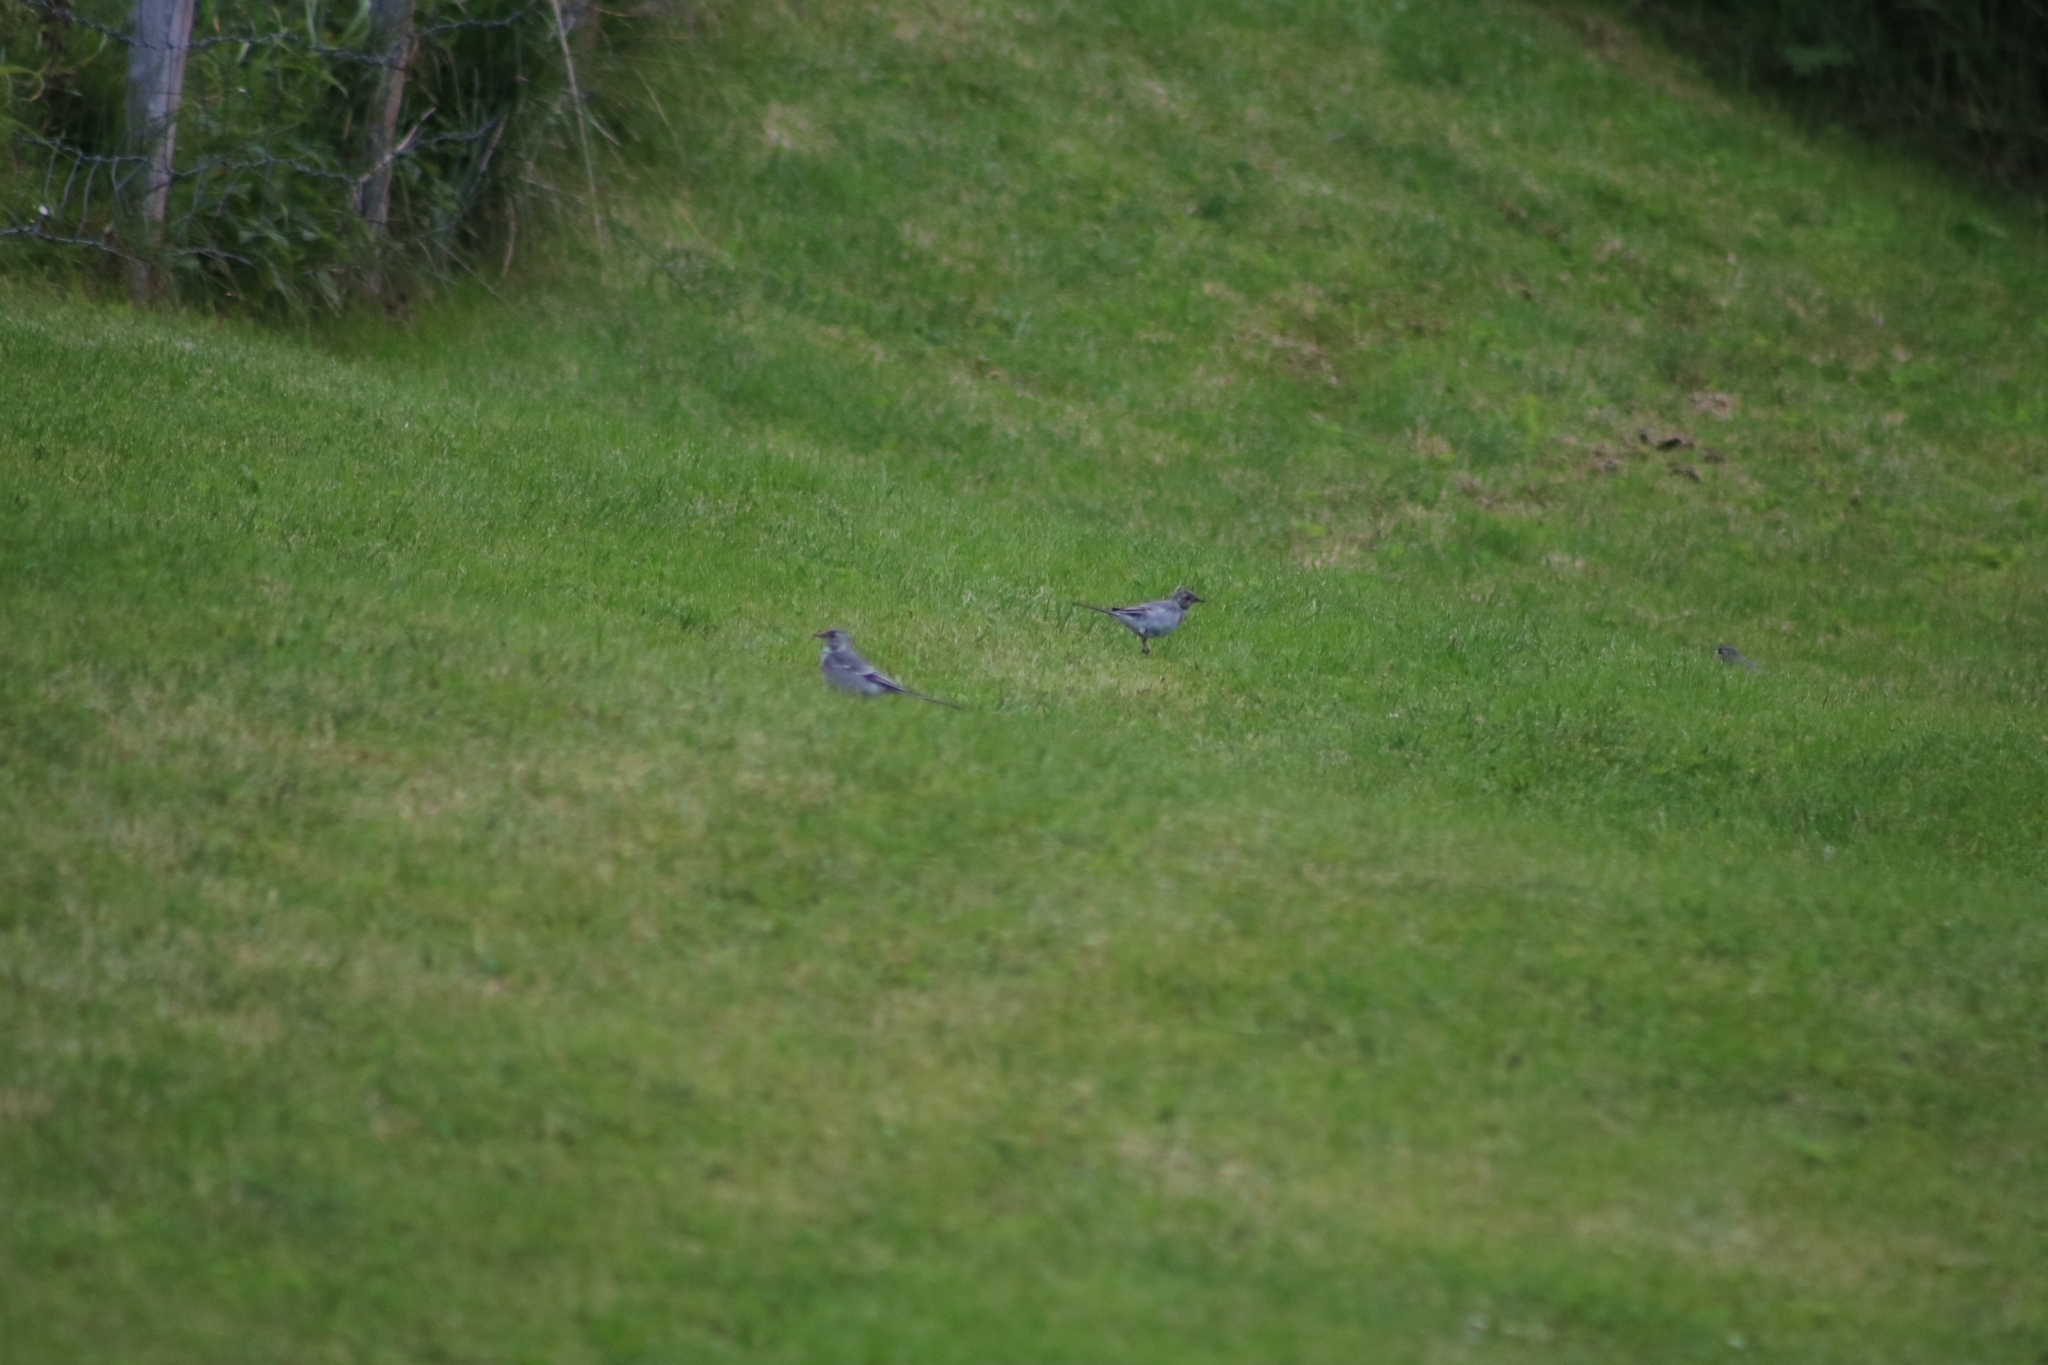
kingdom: Animalia
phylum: Chordata
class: Aves
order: Passeriformes
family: Motacillidae
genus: Motacilla
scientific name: Motacilla alba
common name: White wagtail
